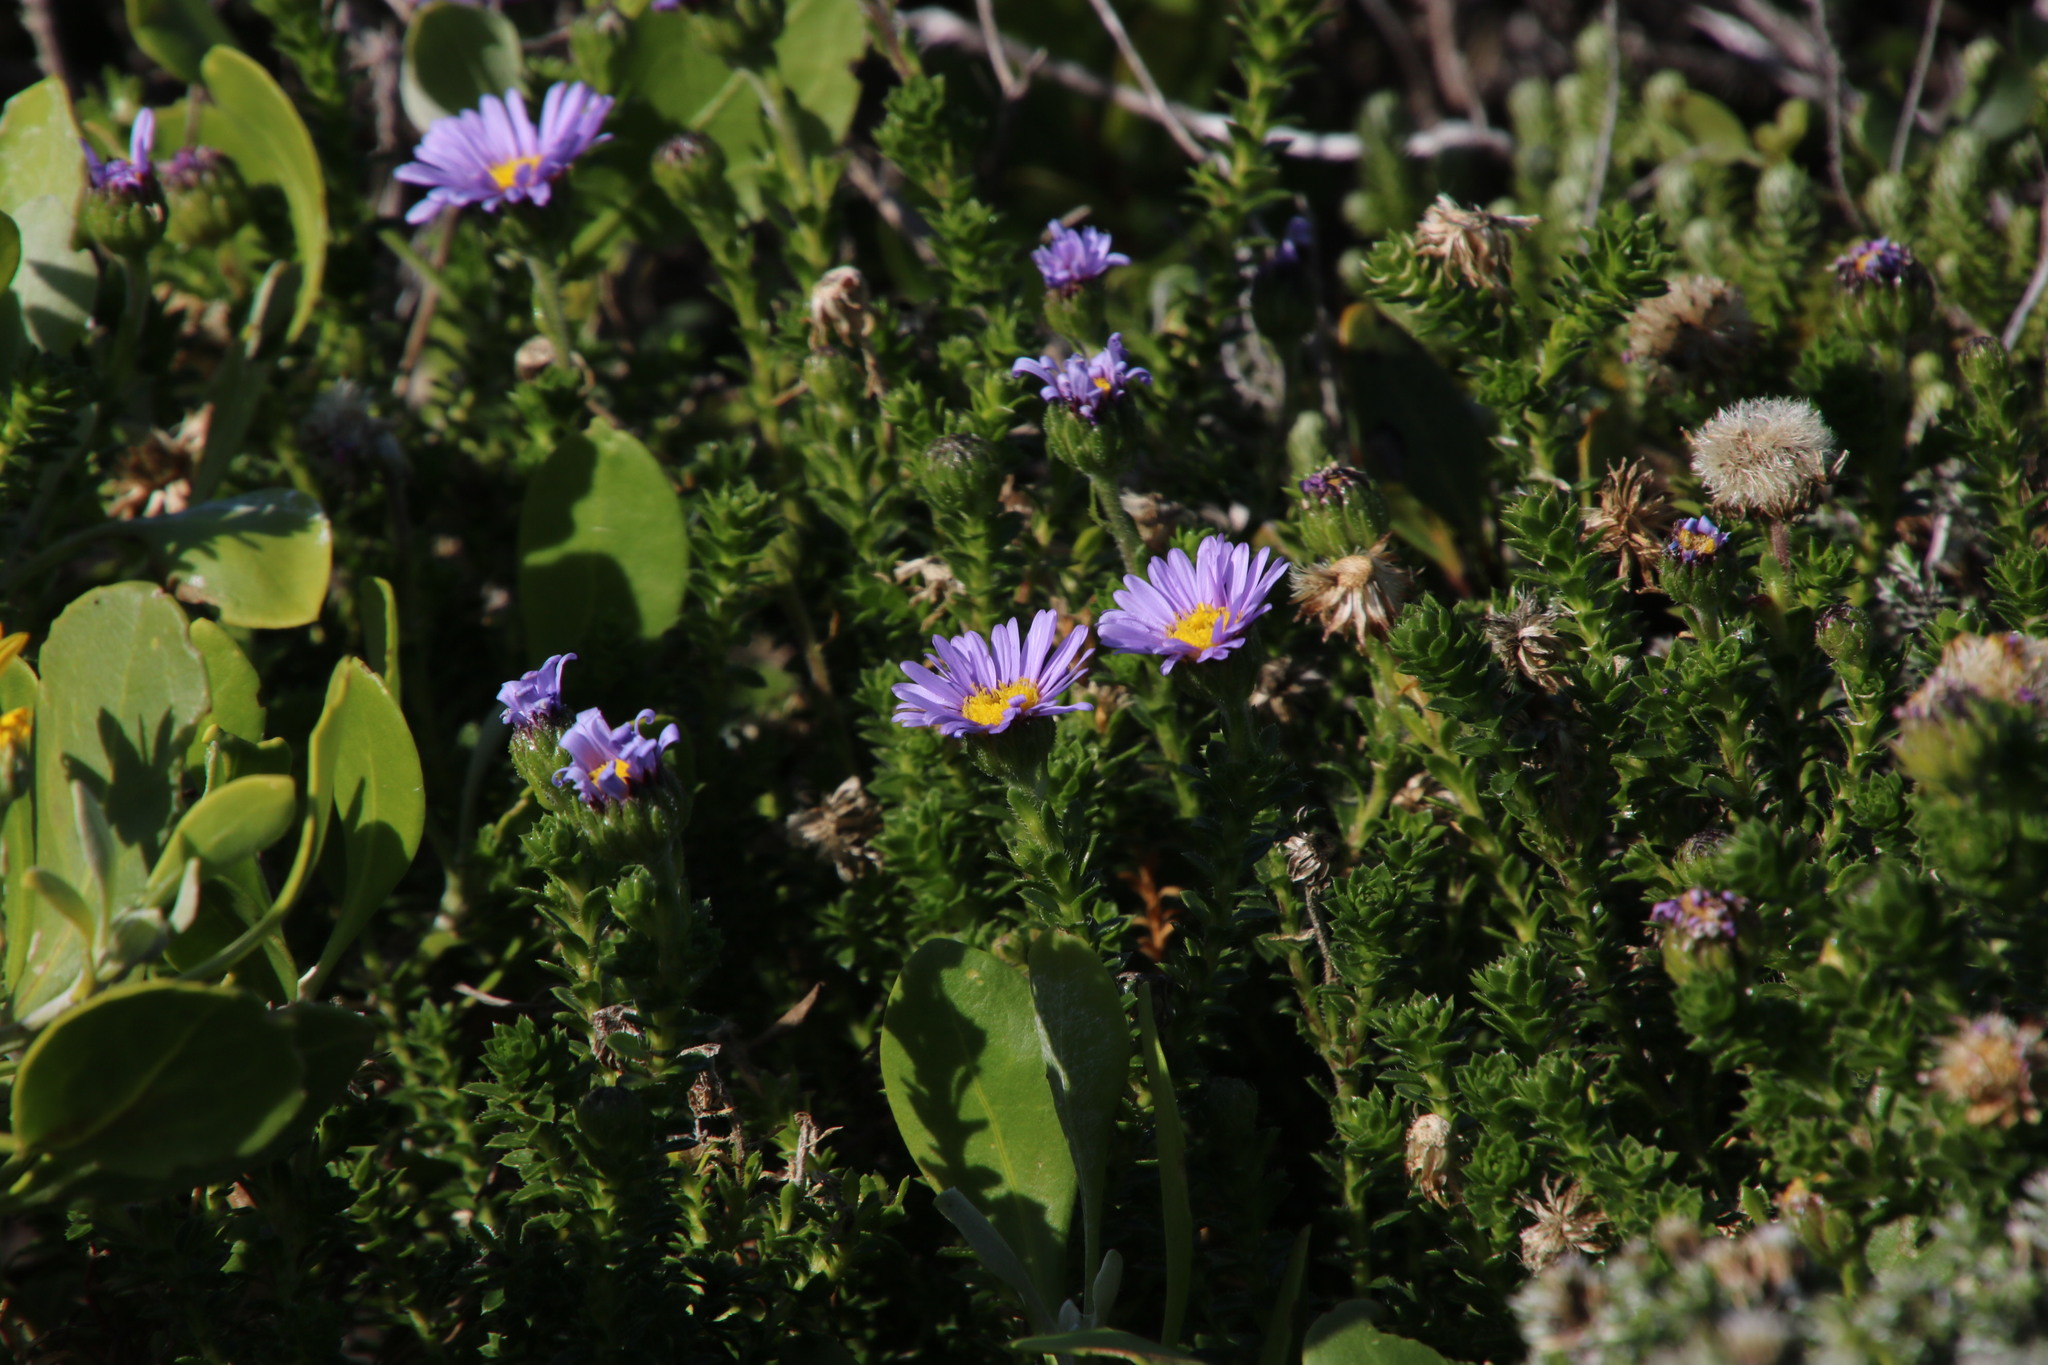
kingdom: Plantae
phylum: Tracheophyta
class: Magnoliopsida
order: Asterales
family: Asteraceae
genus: Felicia
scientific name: Felicia echinata
